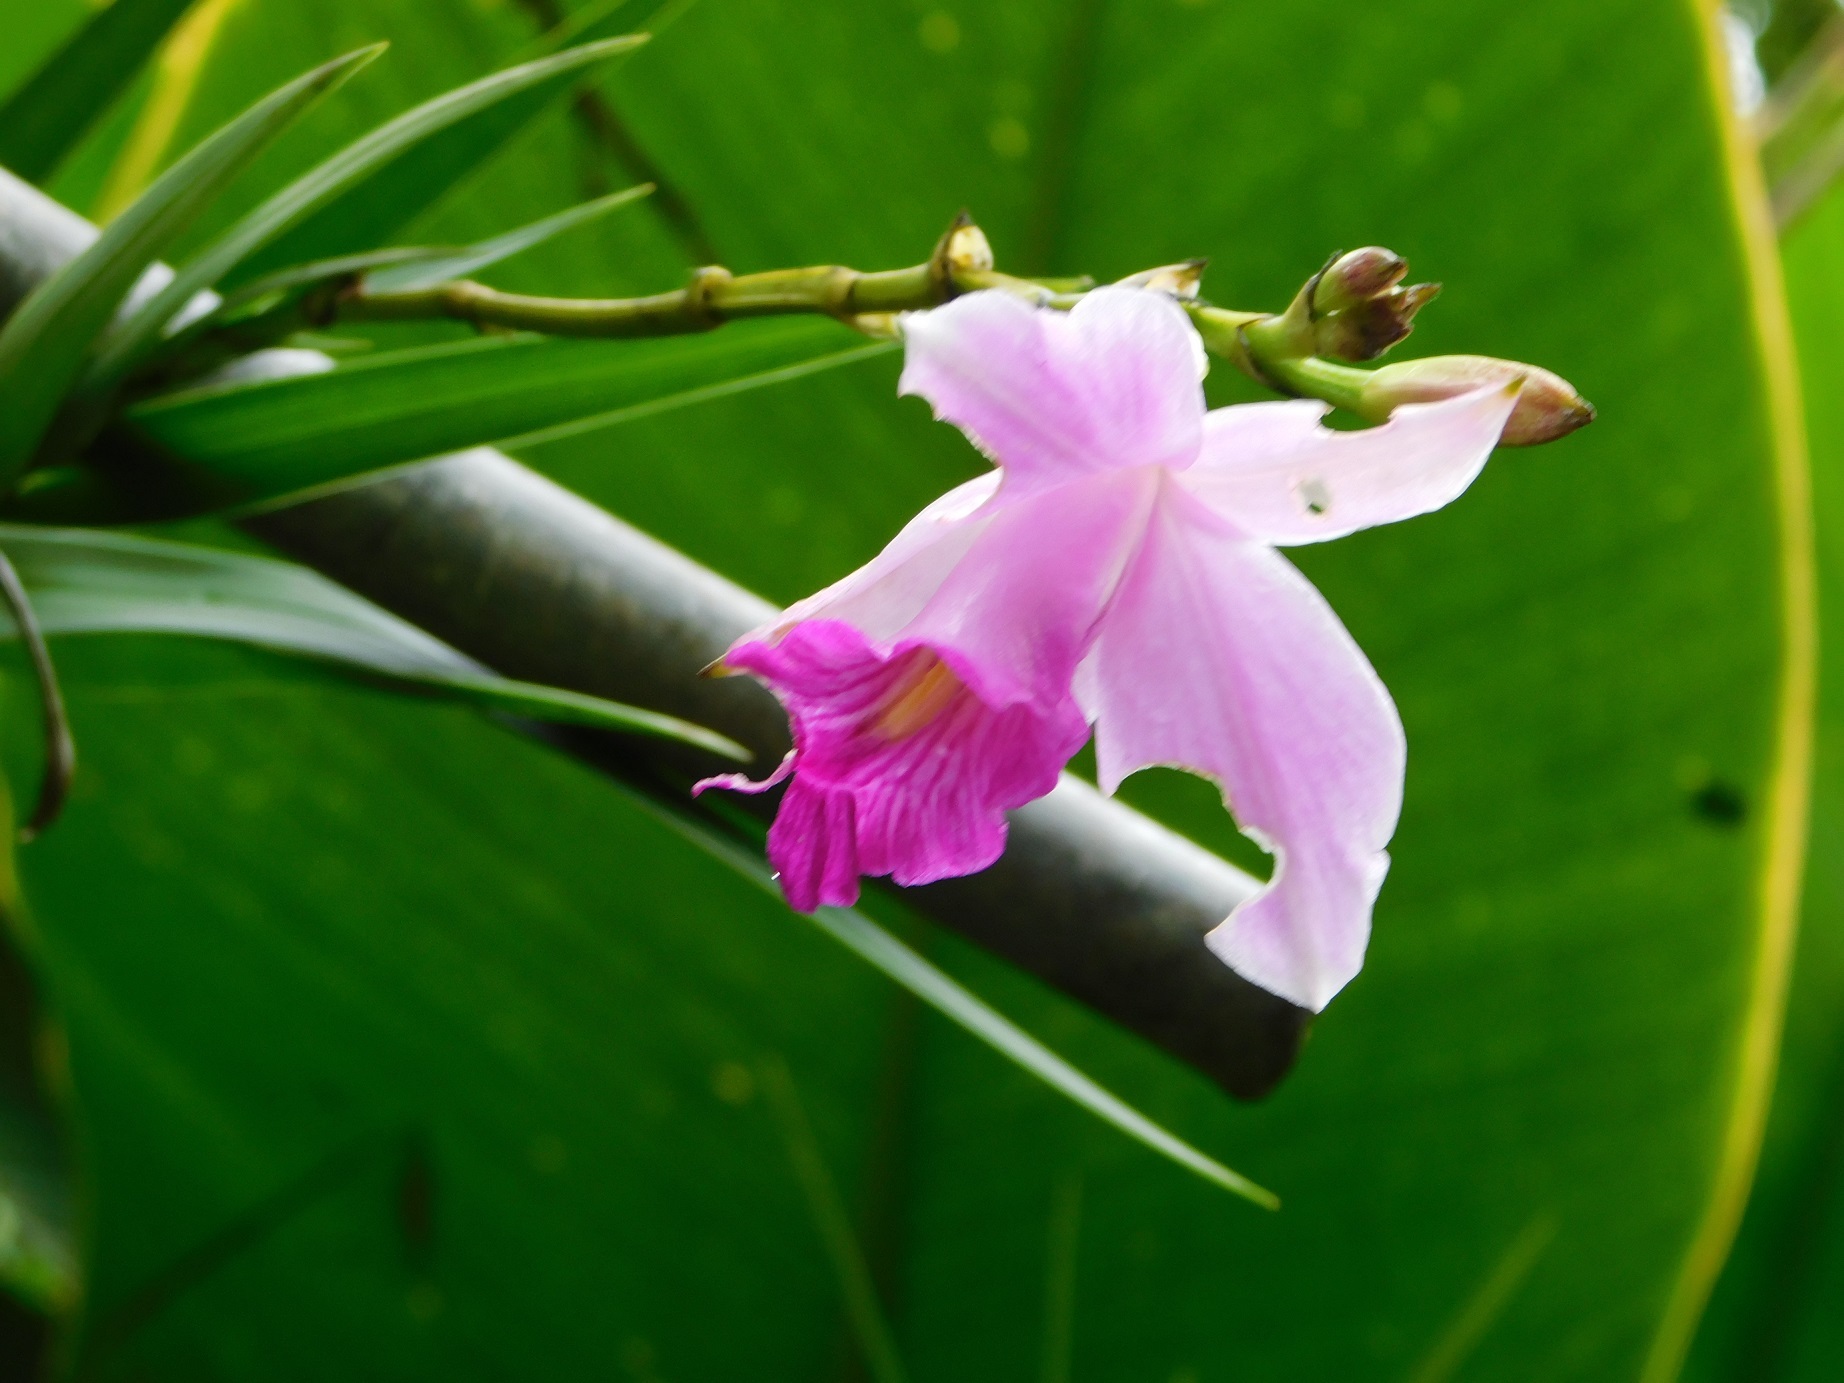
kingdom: Plantae
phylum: Tracheophyta
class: Liliopsida
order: Asparagales
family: Orchidaceae
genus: Arundina
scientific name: Arundina graminifolia
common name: Bamboo orchid
